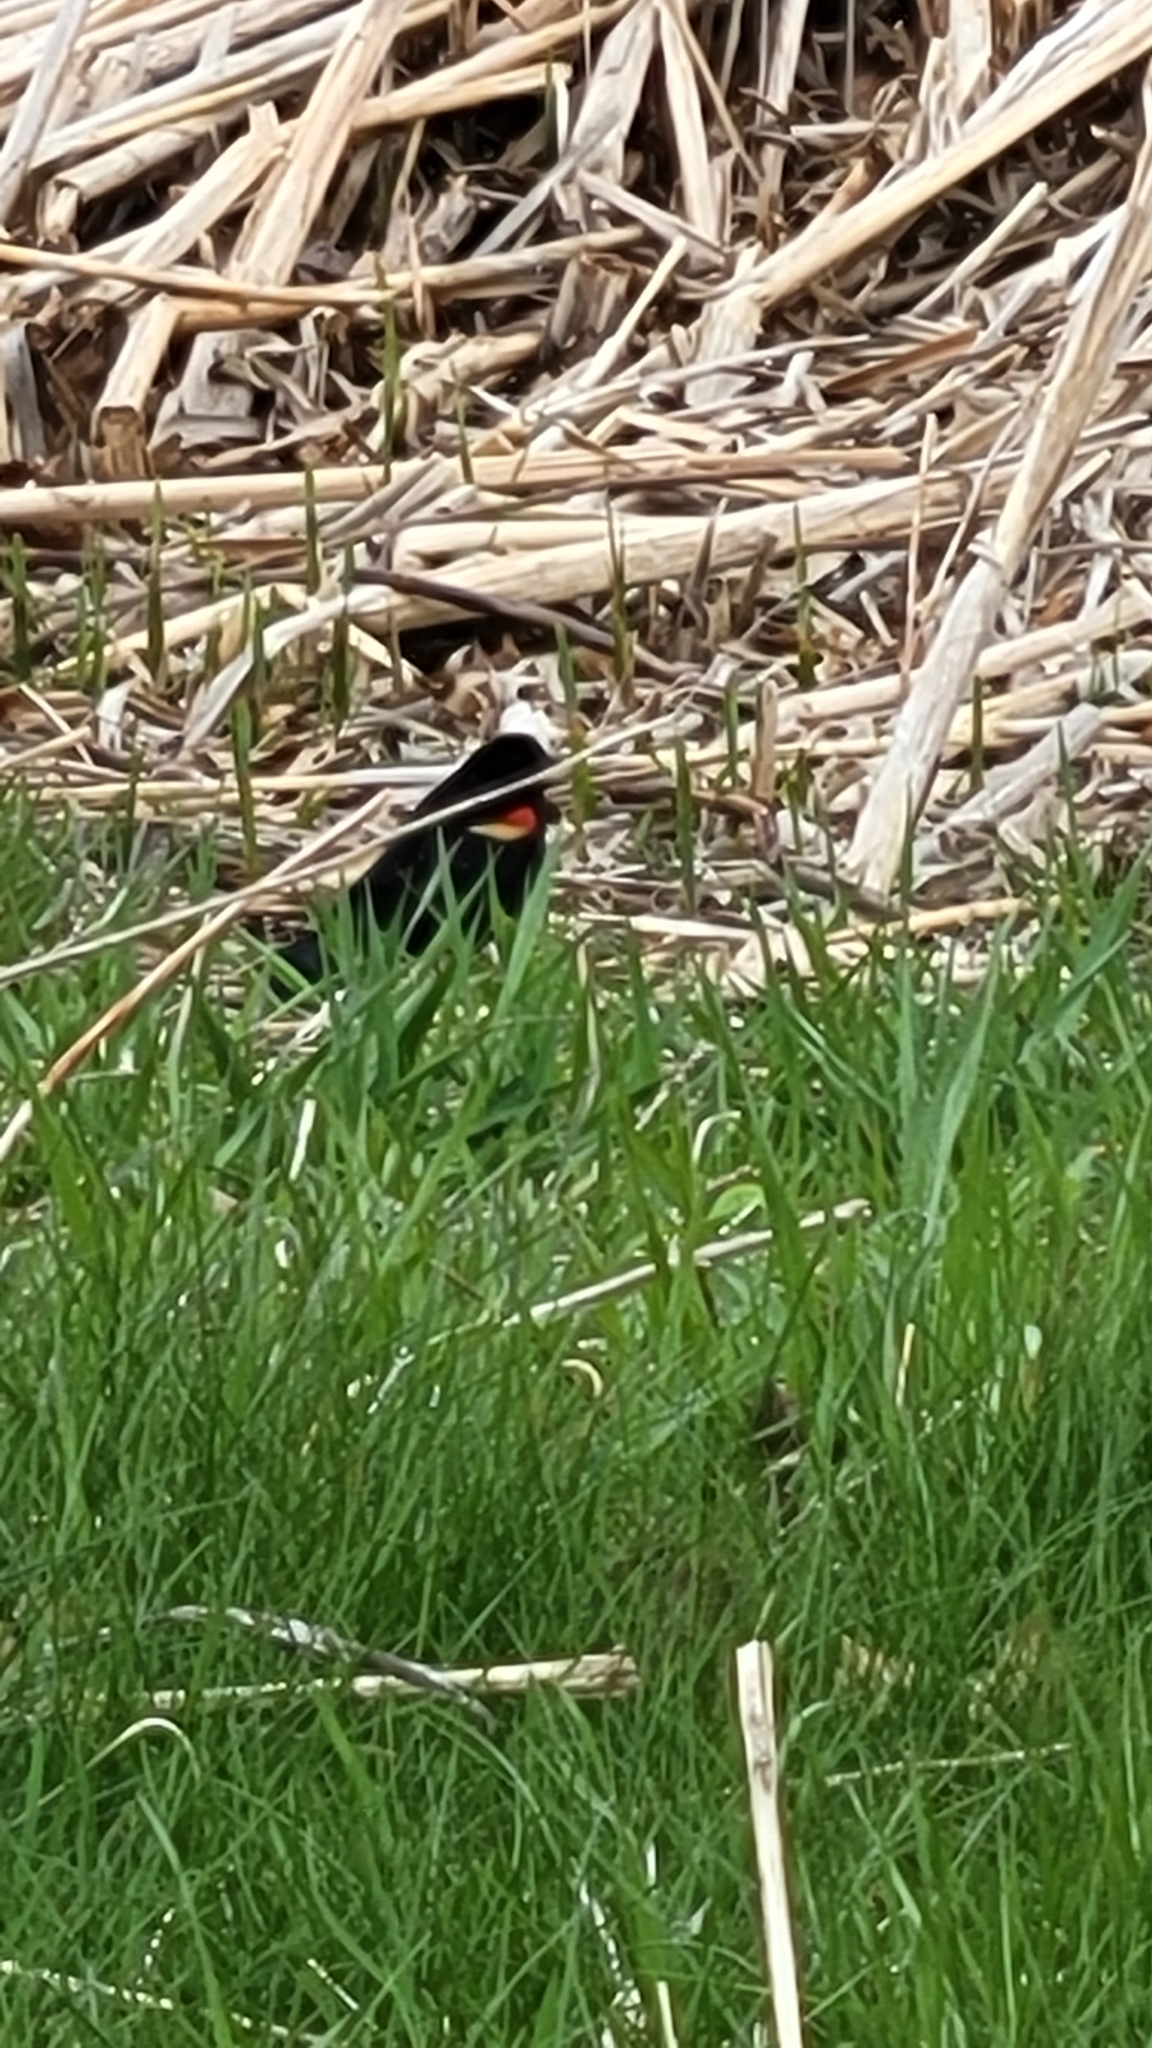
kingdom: Animalia
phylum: Chordata
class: Aves
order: Passeriformes
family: Icteridae
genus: Agelaius
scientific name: Agelaius phoeniceus
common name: Red-winged blackbird
